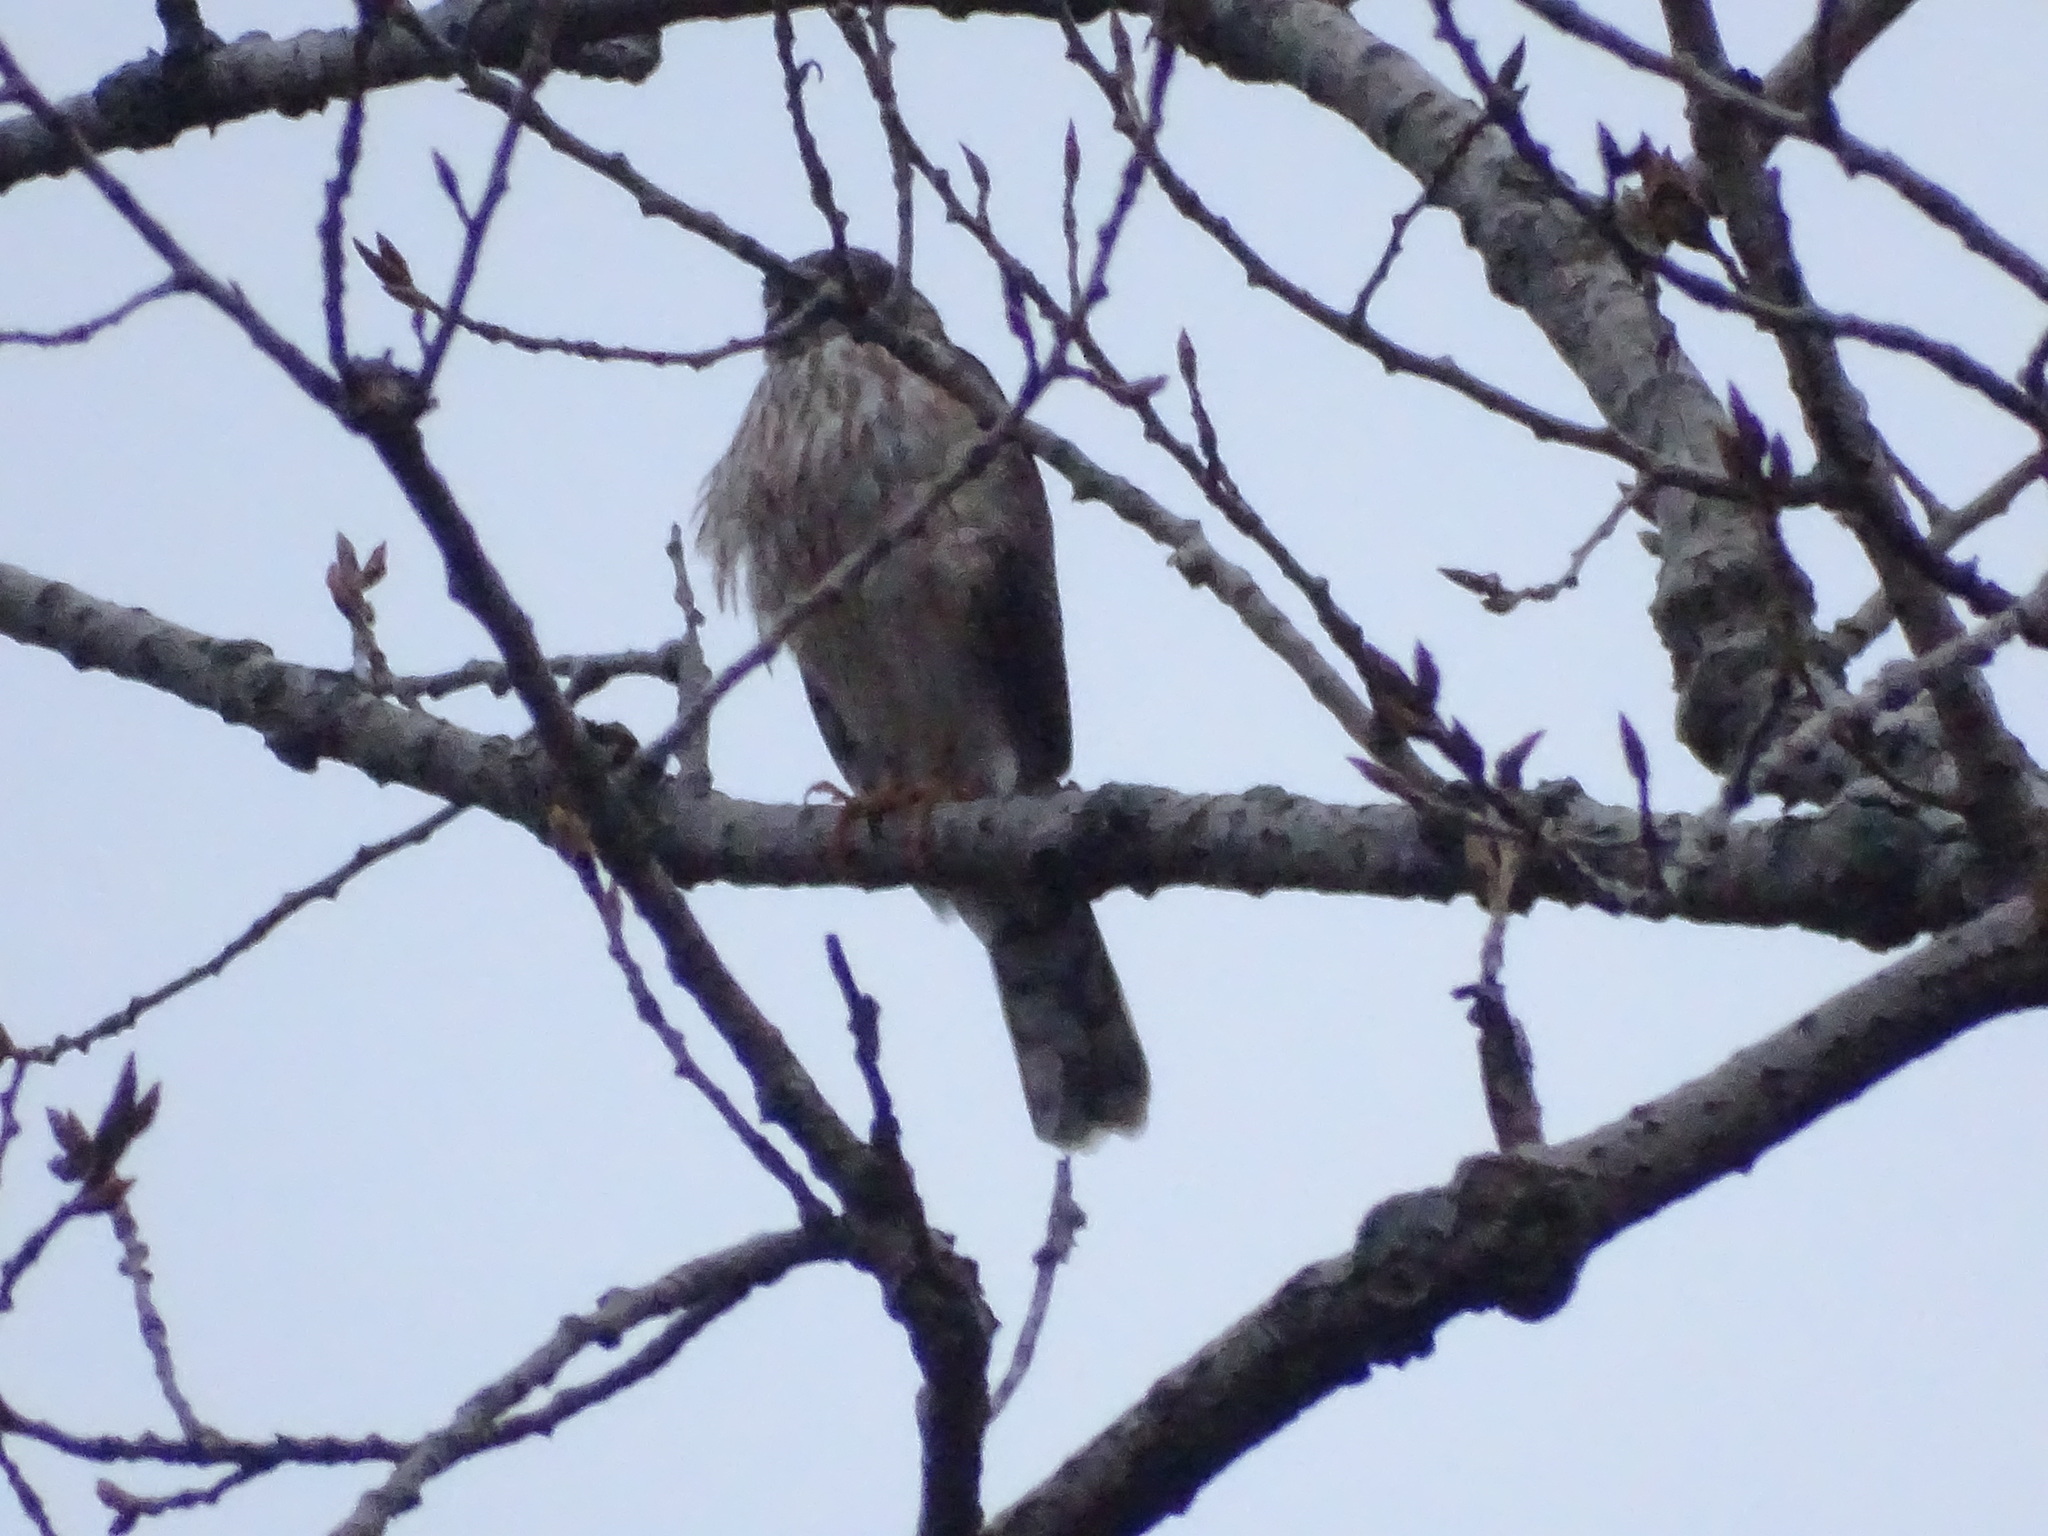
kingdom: Animalia
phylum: Chordata
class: Aves
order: Accipitriformes
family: Accipitridae
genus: Accipiter
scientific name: Accipiter striatus
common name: Sharp-shinned hawk
